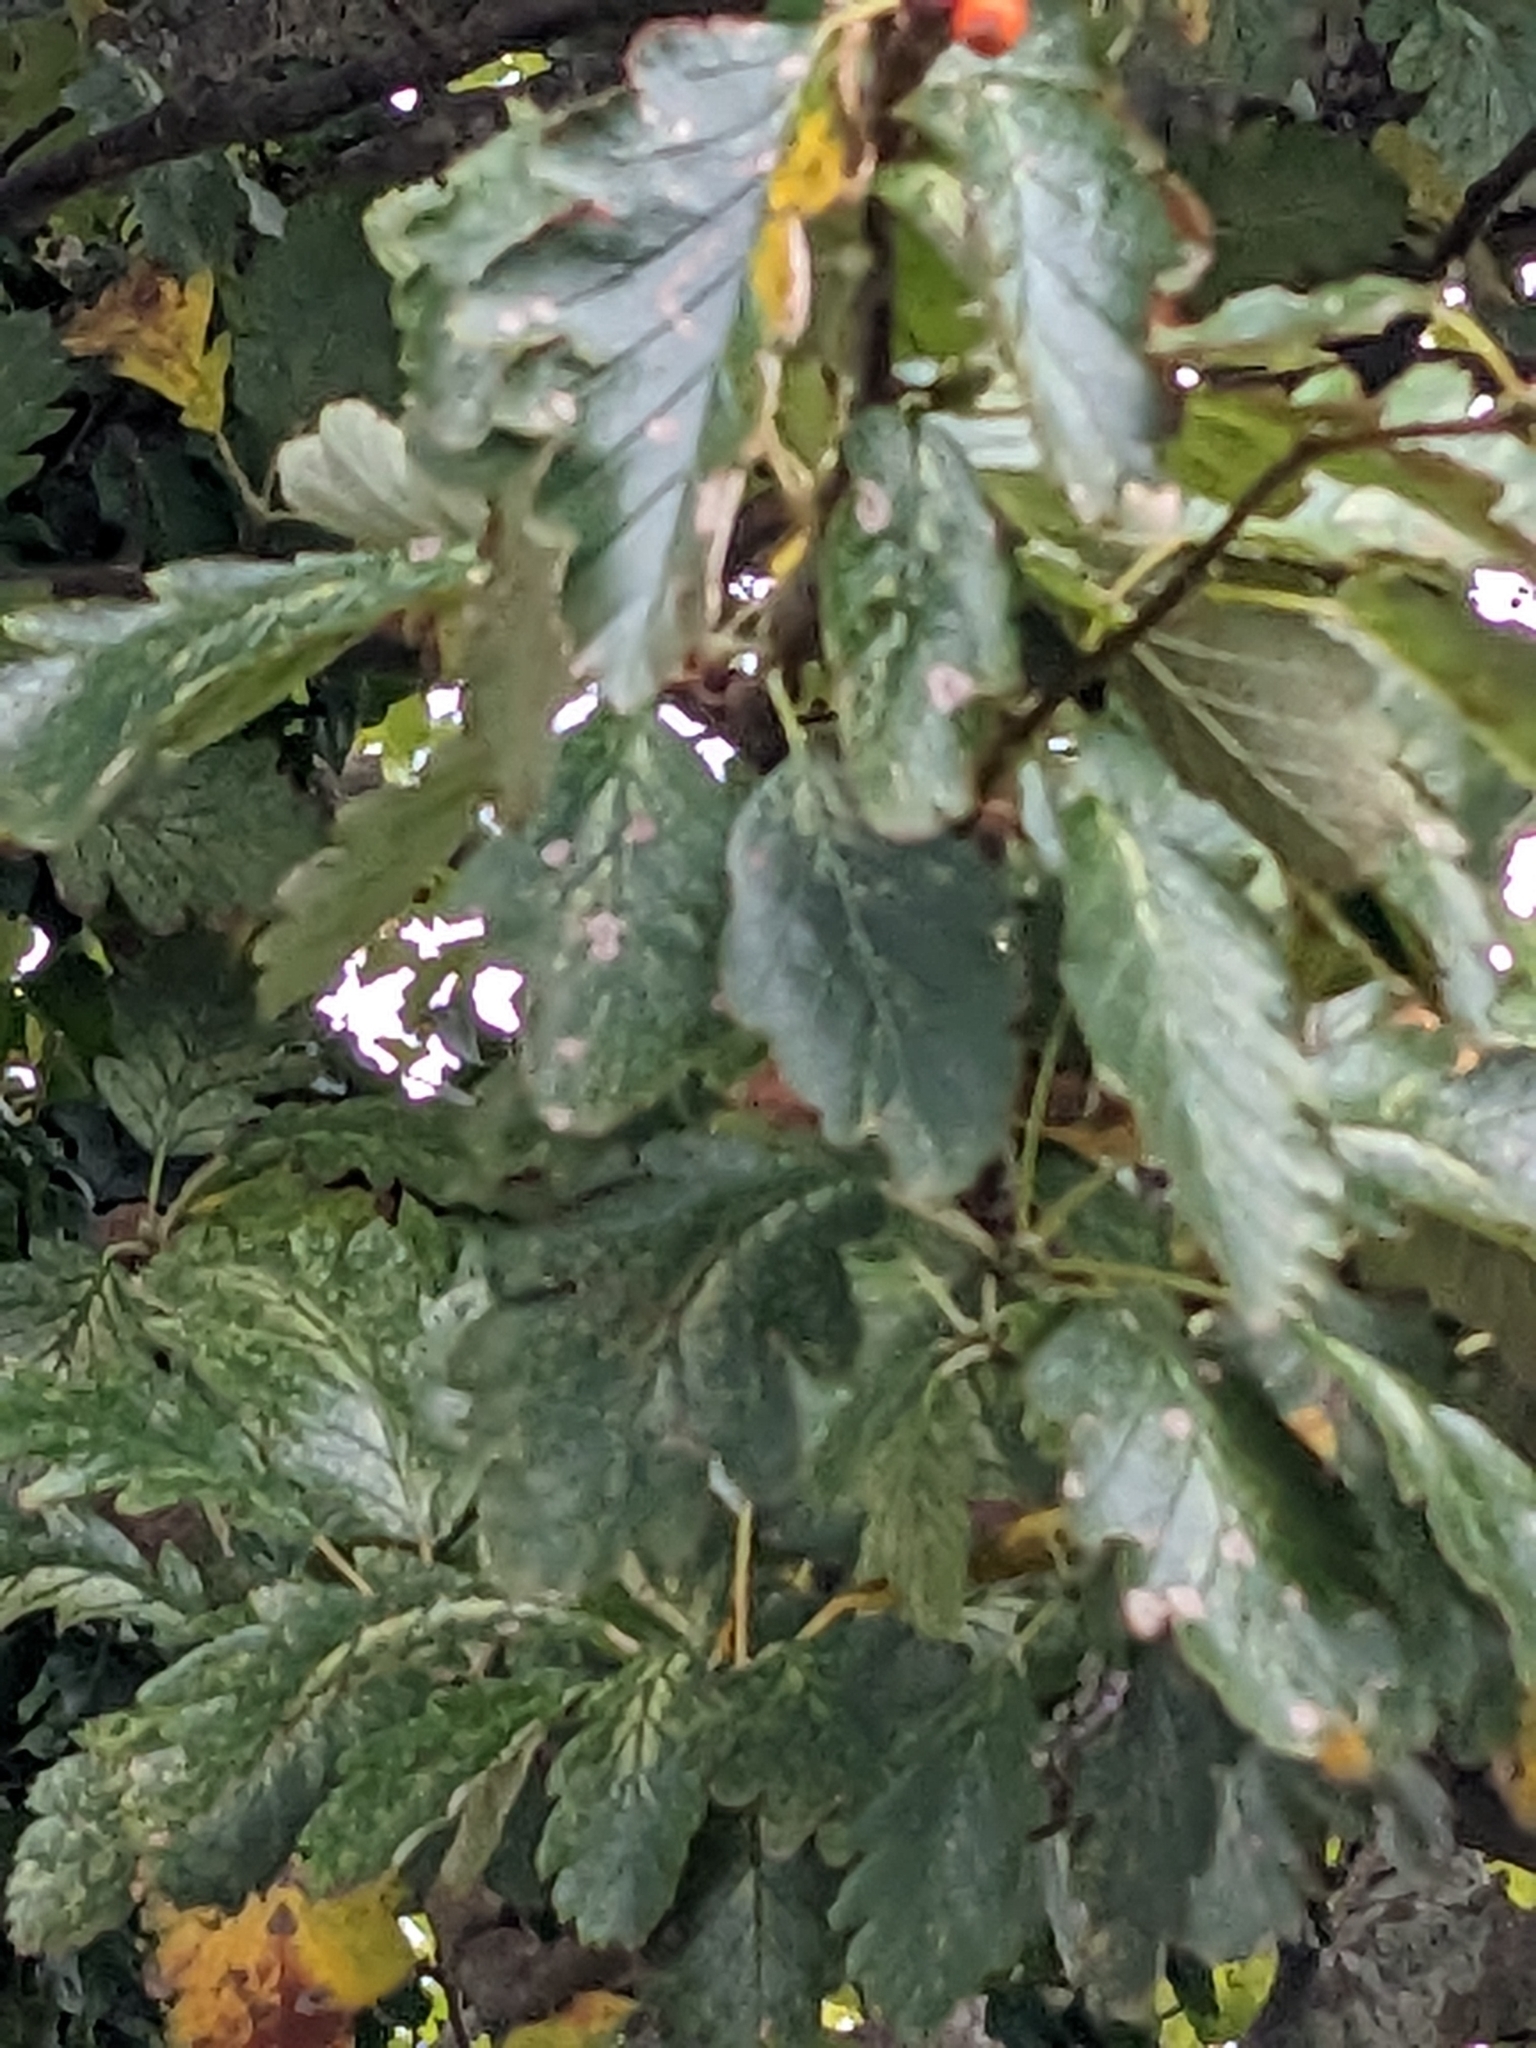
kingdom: Plantae
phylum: Tracheophyta
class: Magnoliopsida
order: Rosales
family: Rosaceae
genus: Scandosorbus
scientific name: Scandosorbus intermedia
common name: Swedish whitebeam
